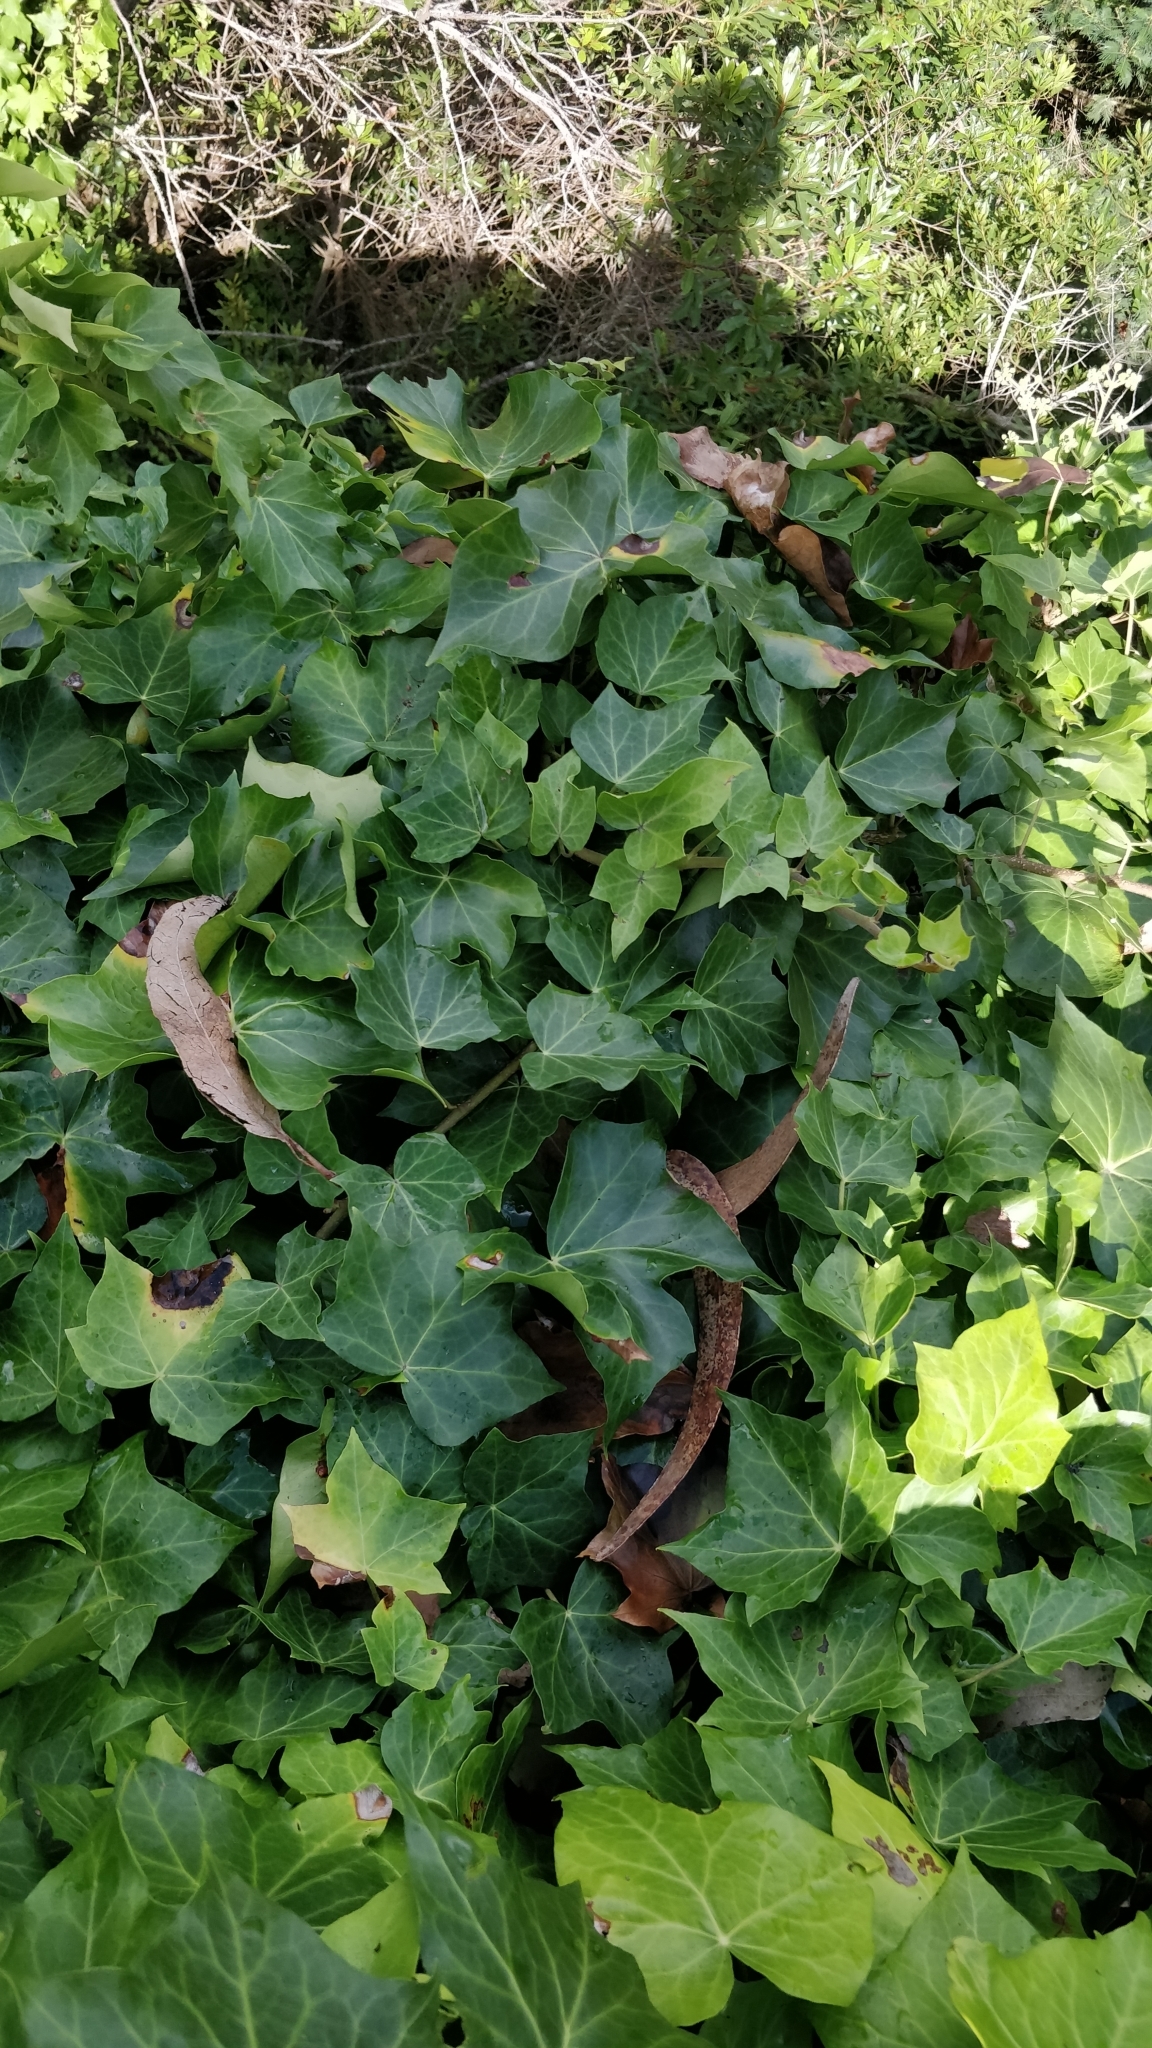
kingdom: Plantae
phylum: Tracheophyta
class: Magnoliopsida
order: Apiales
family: Araliaceae
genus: Hedera
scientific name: Hedera maderensis
